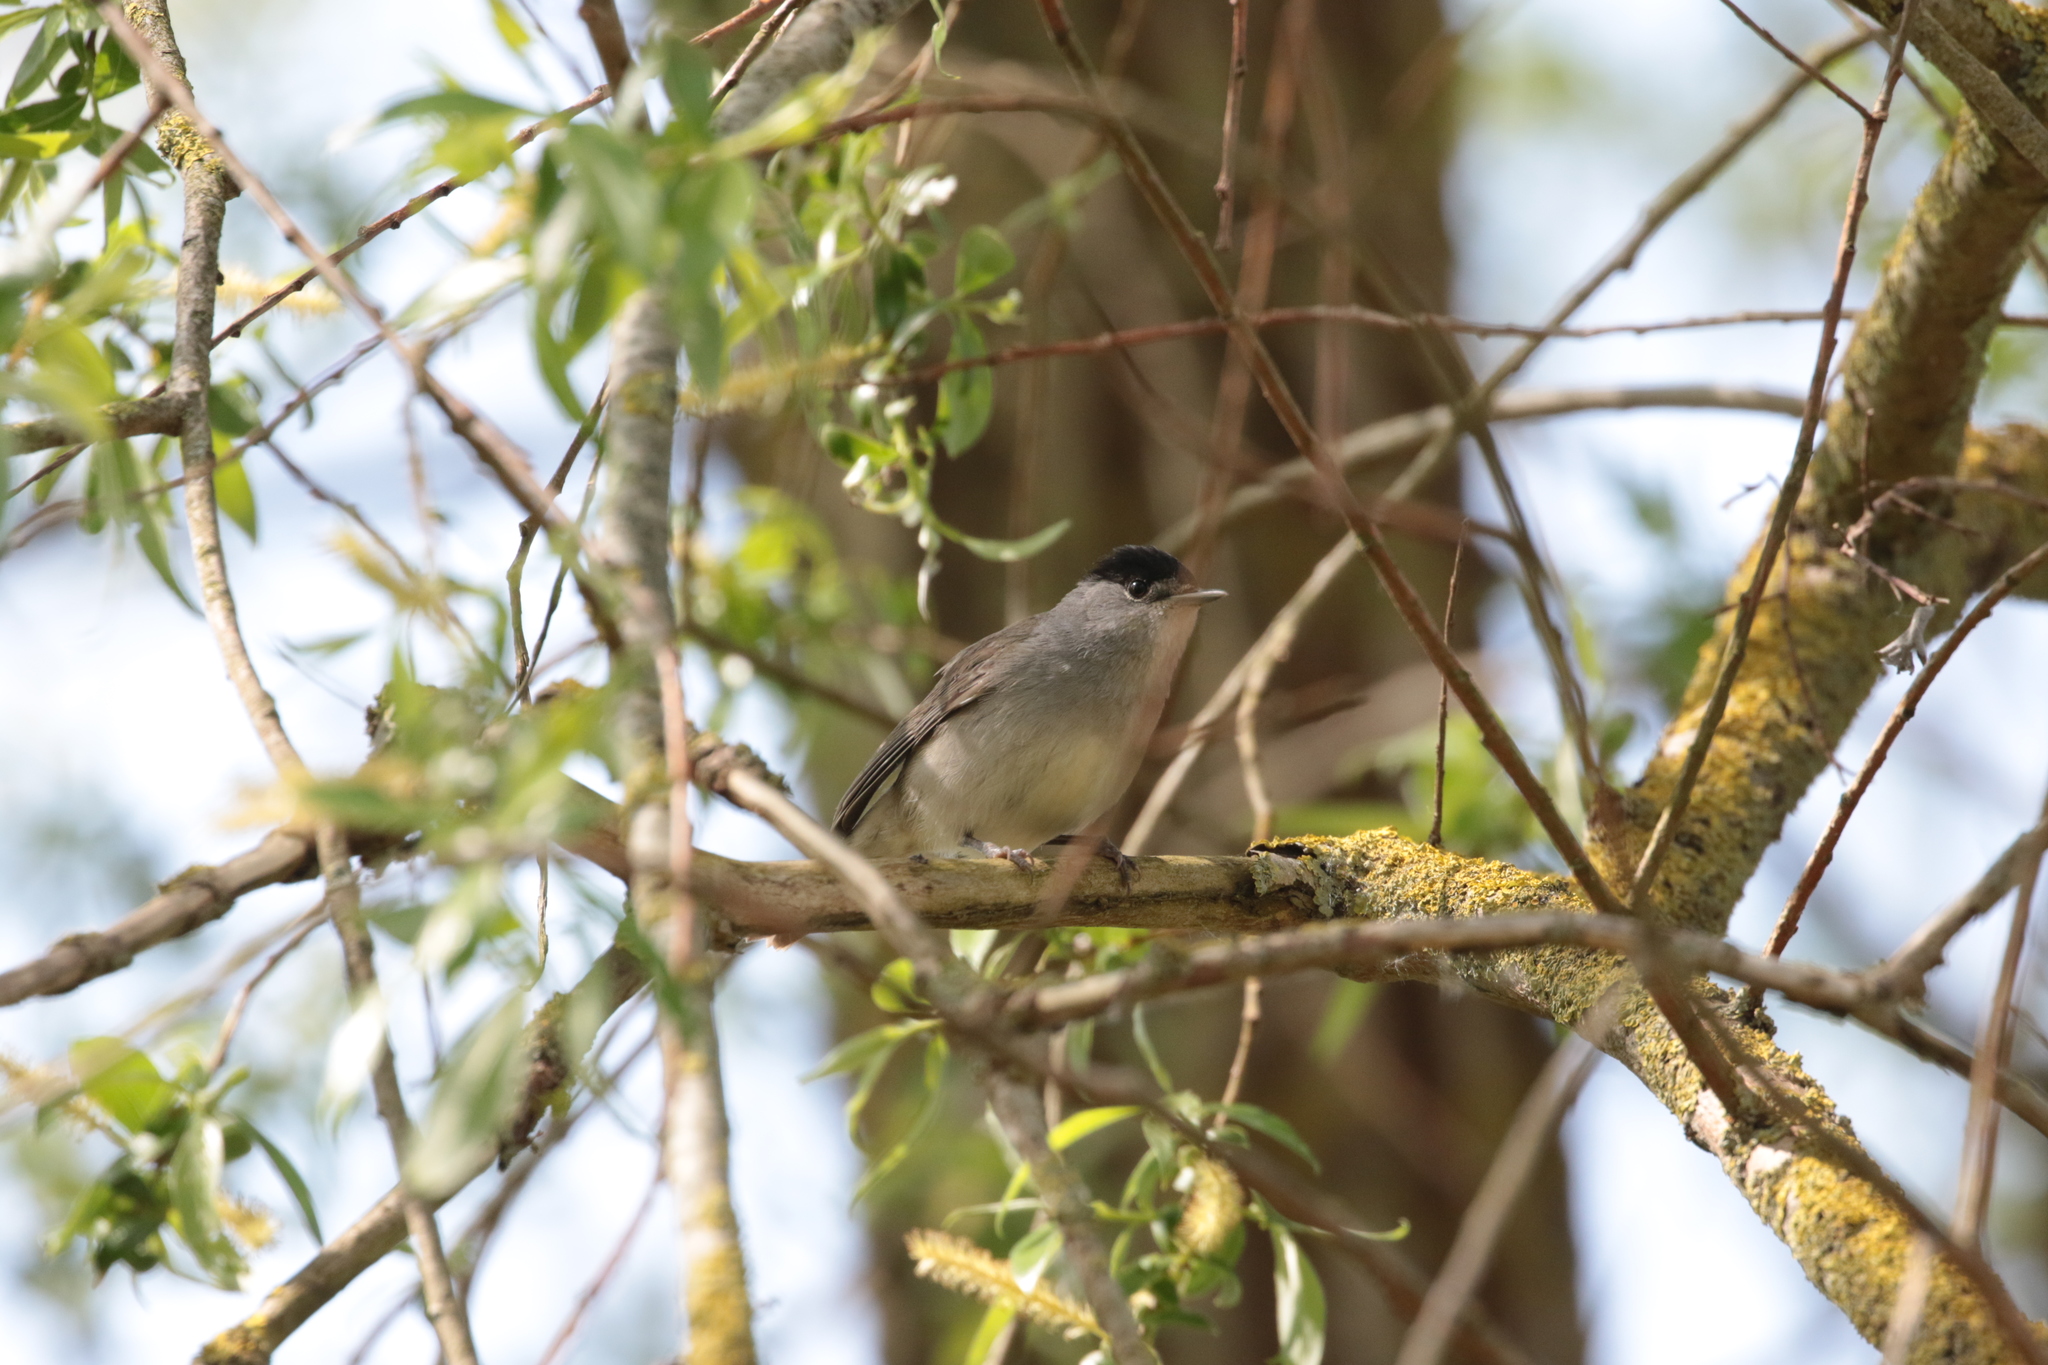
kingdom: Animalia
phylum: Chordata
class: Aves
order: Passeriformes
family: Sylviidae
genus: Sylvia
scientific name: Sylvia atricapilla
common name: Eurasian blackcap
